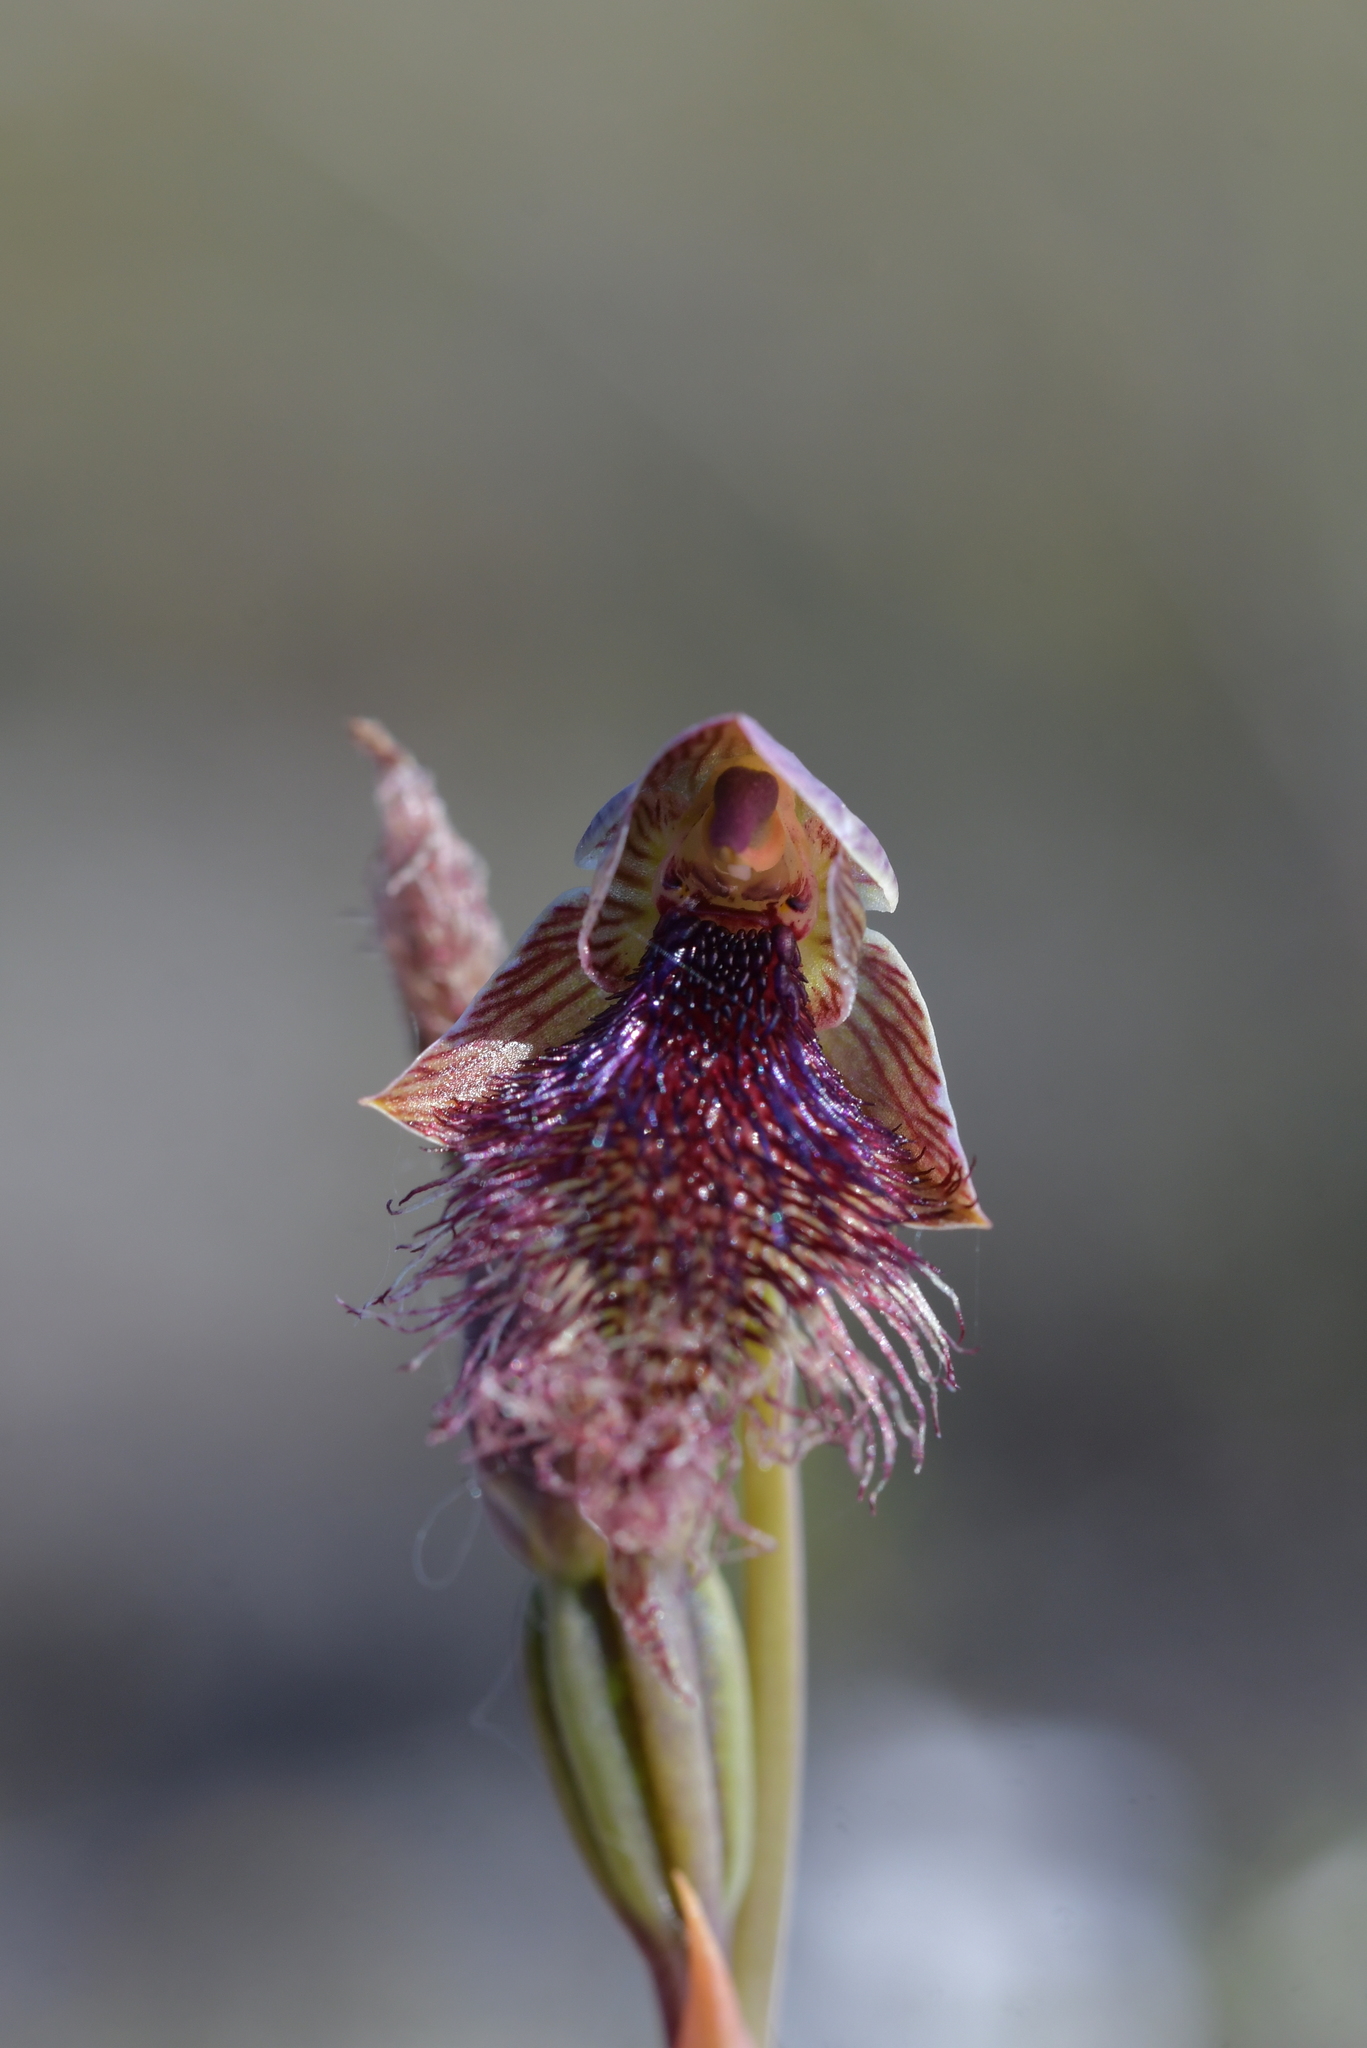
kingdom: Plantae
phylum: Tracheophyta
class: Liliopsida
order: Asparagales
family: Orchidaceae
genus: Calochilus
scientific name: Calochilus robertsonii
